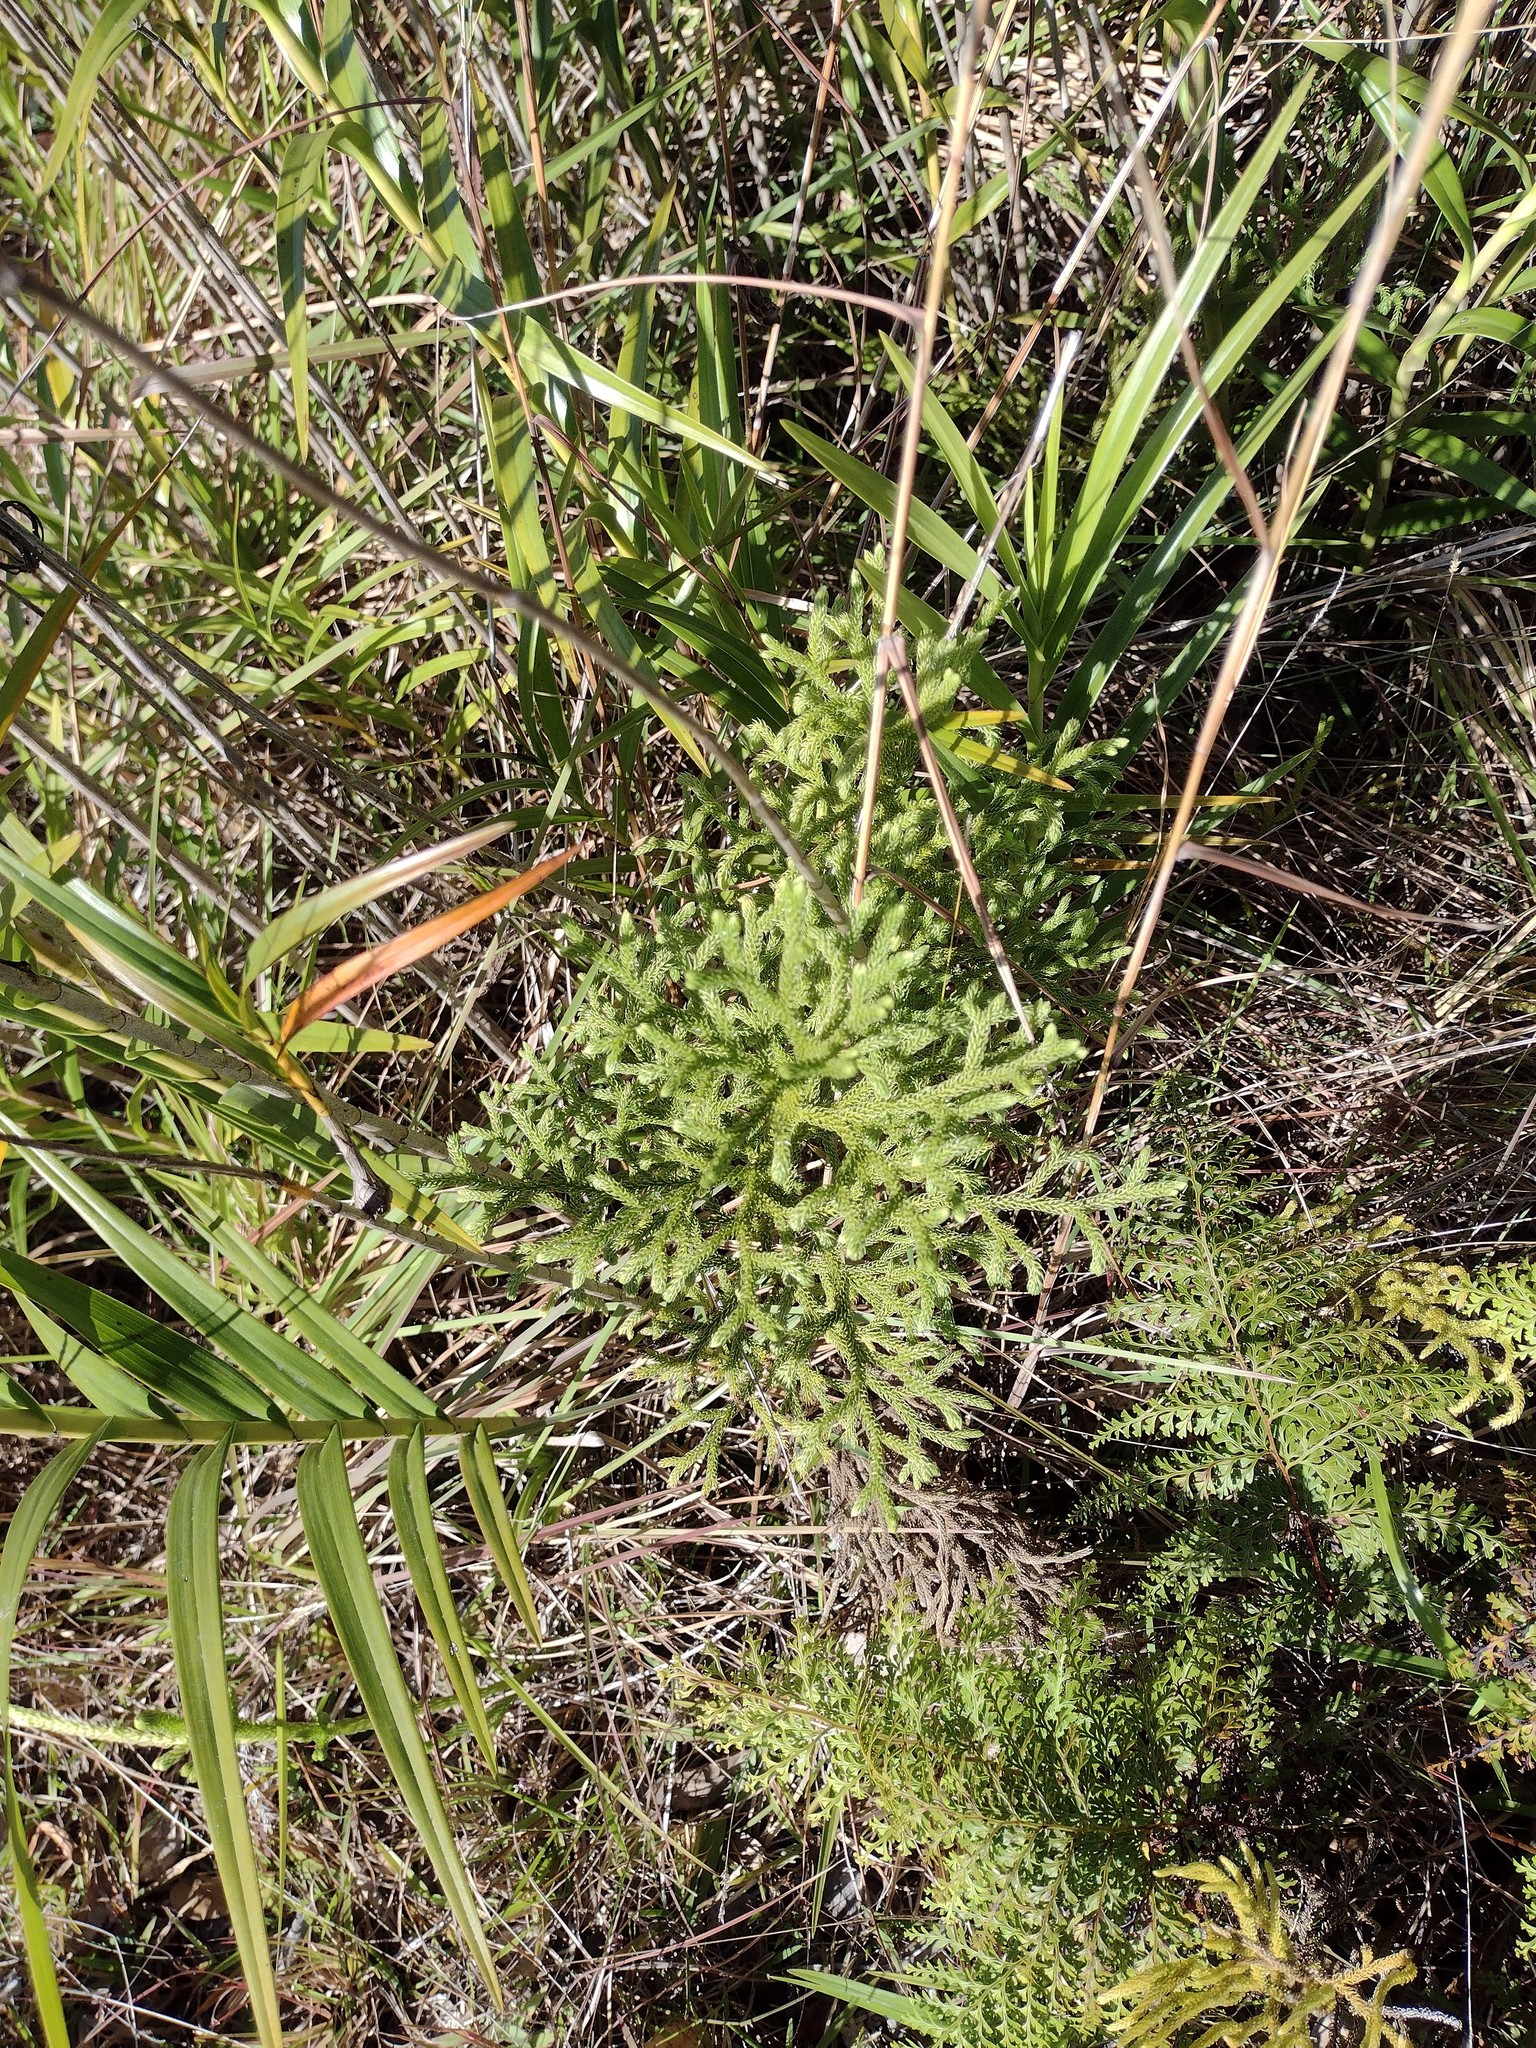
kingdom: Plantae
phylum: Tracheophyta
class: Lycopodiopsida
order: Lycopodiales
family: Lycopodiaceae
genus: Palhinhaea
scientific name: Palhinhaea cernua
